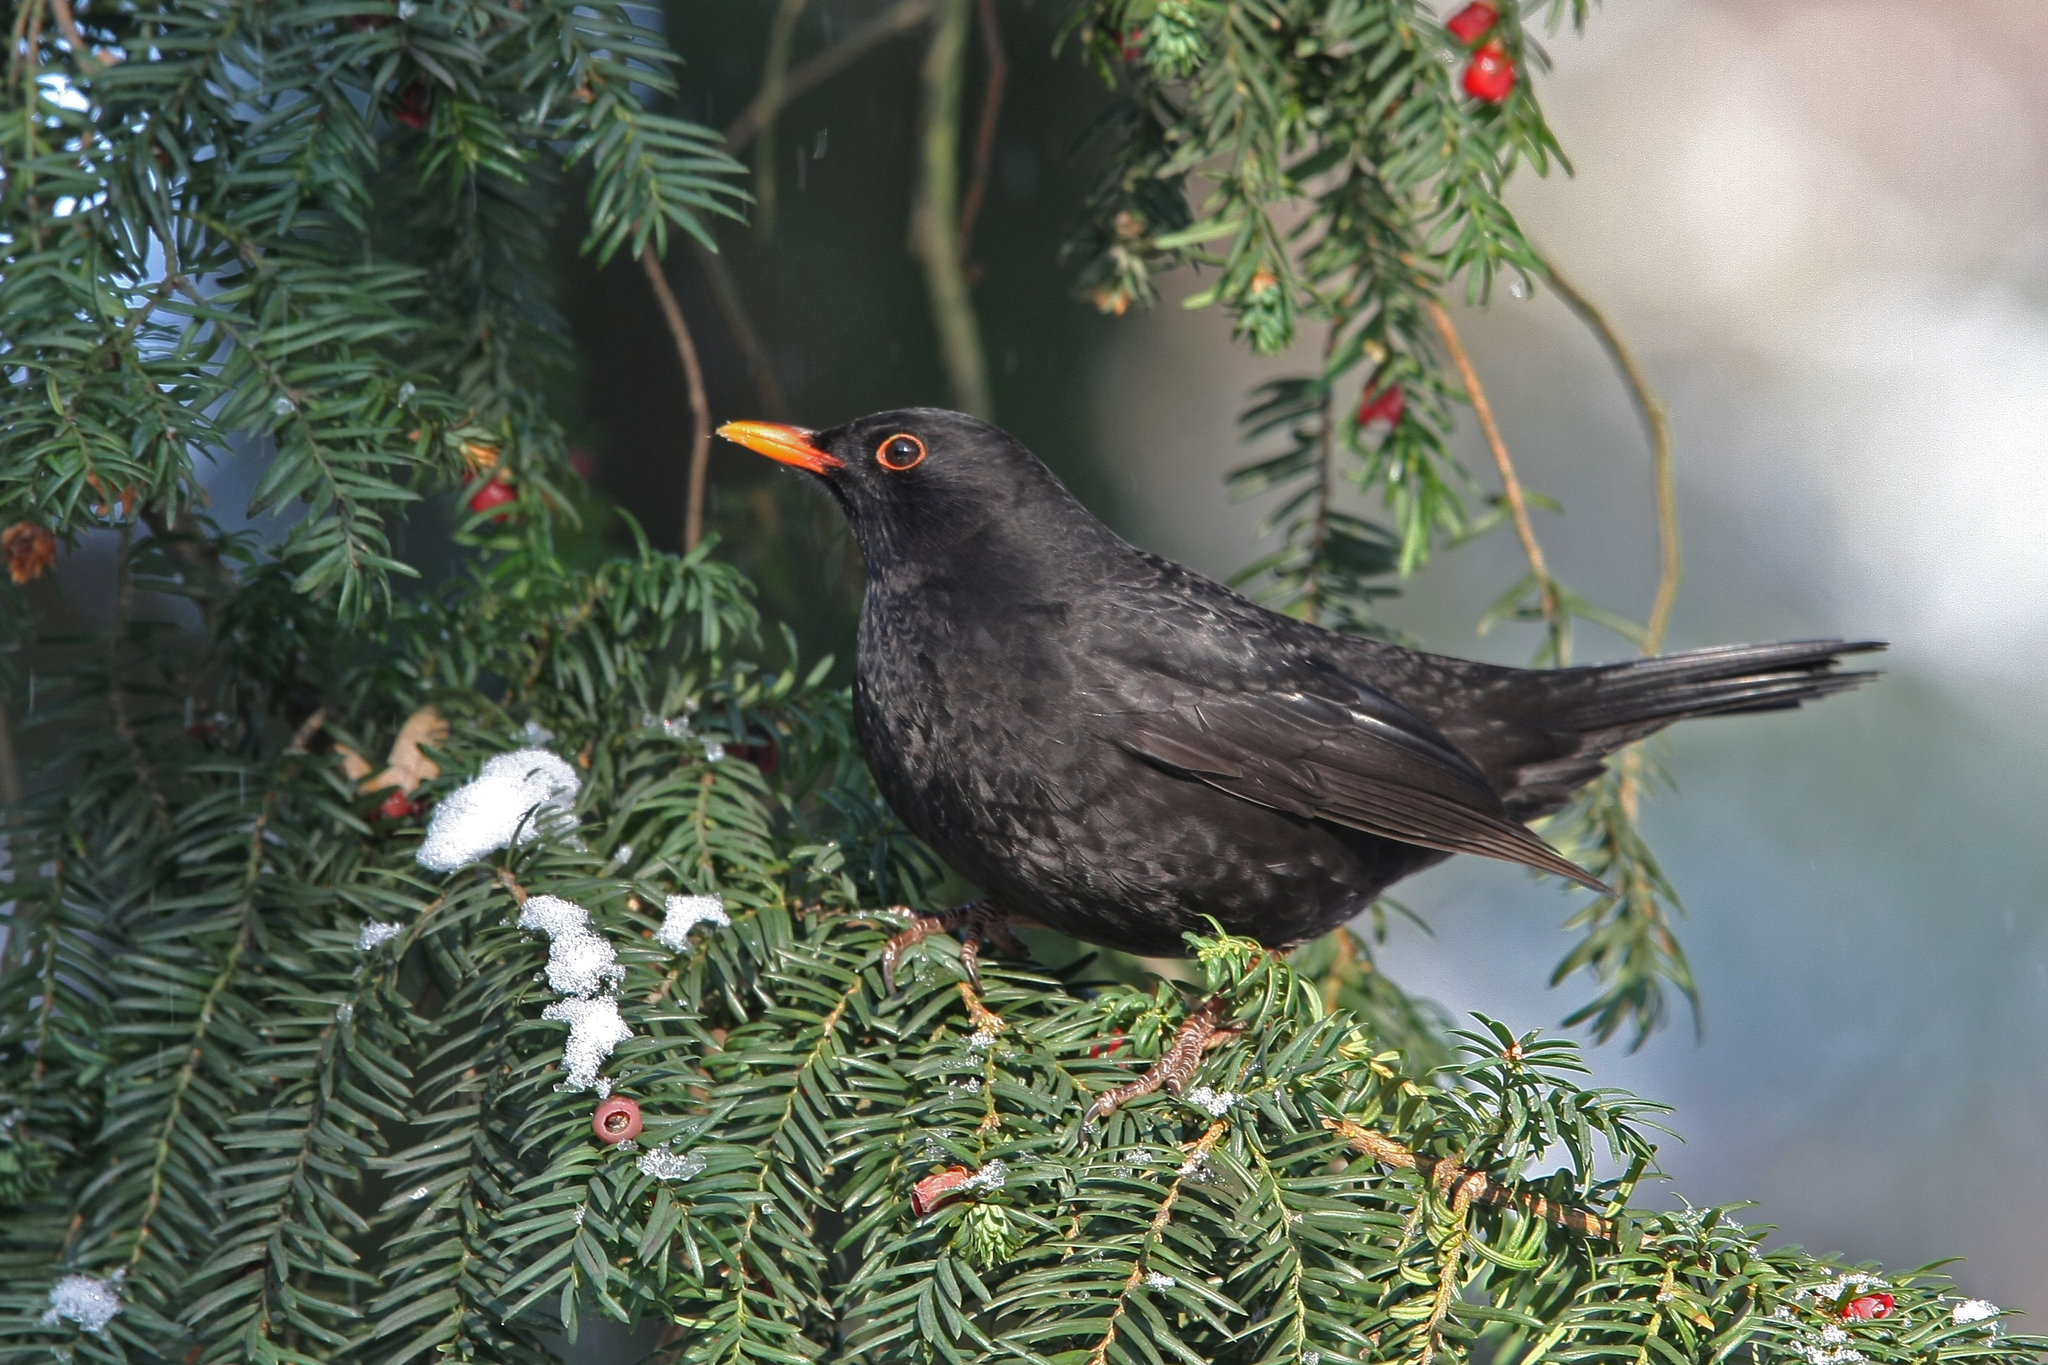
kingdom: Animalia
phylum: Chordata
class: Aves
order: Passeriformes
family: Turdidae
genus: Turdus
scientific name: Turdus merula
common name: Common blackbird
